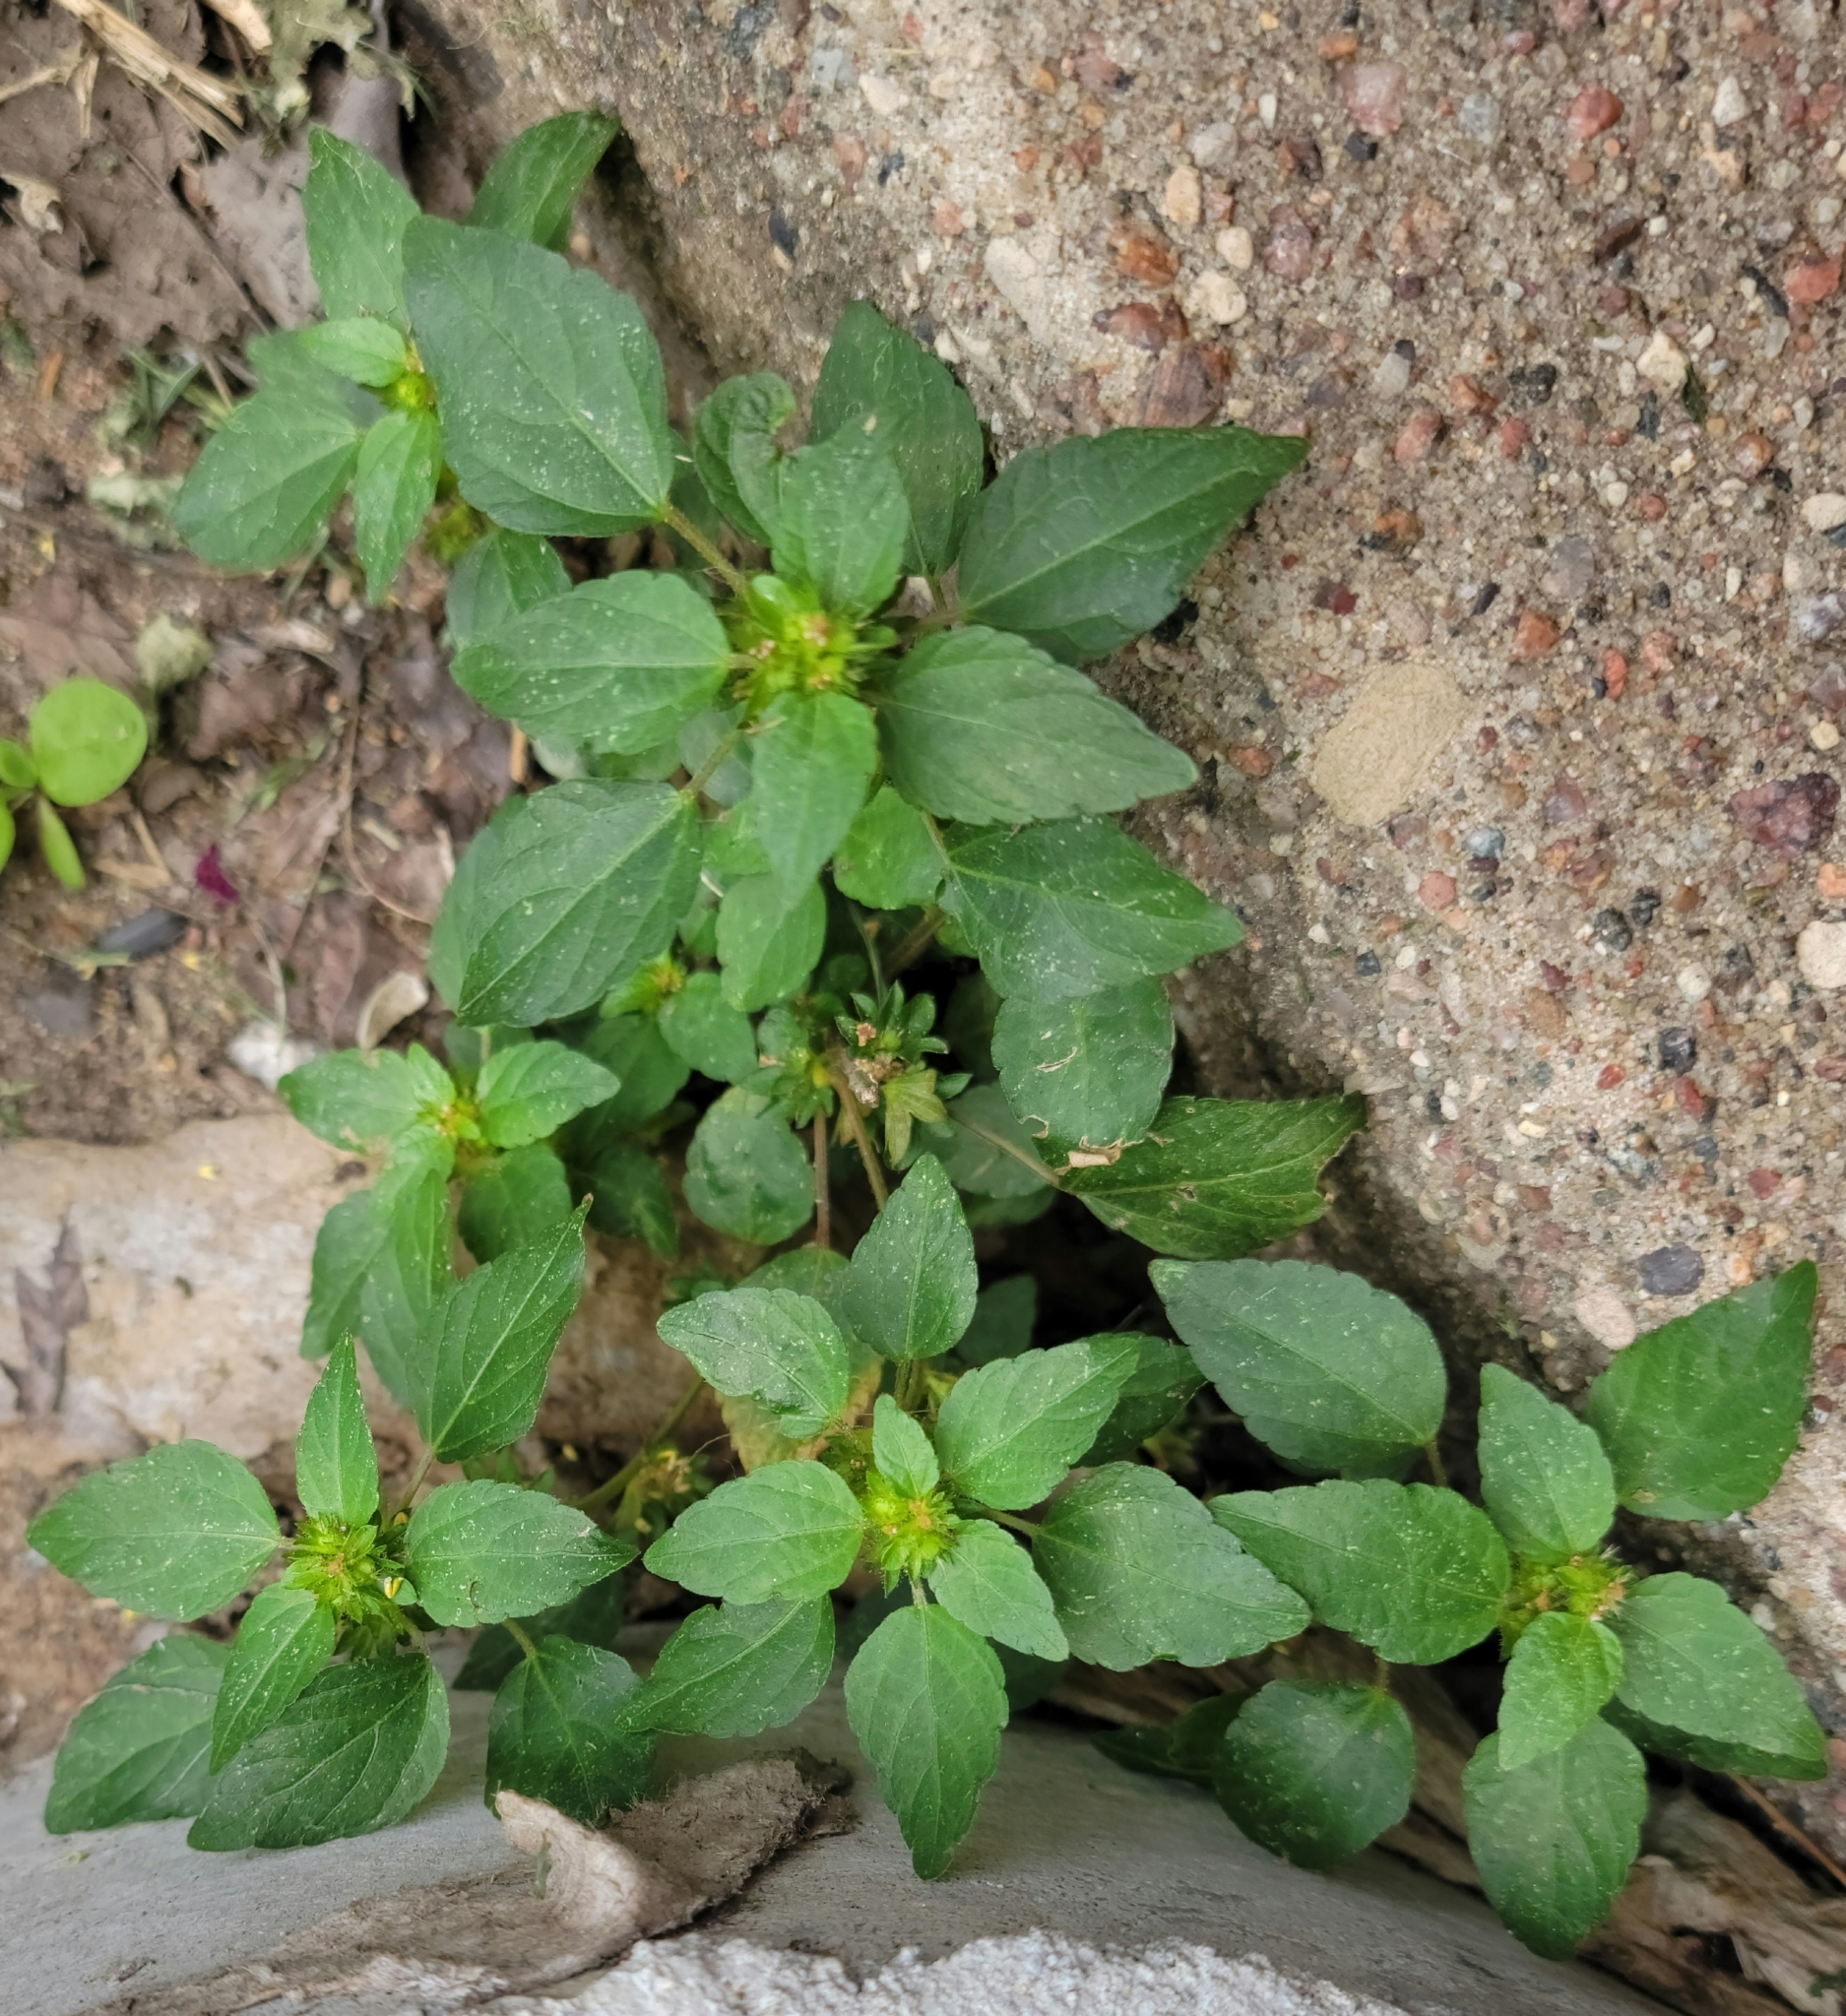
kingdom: Plantae
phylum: Tracheophyta
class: Magnoliopsida
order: Malpighiales
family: Euphorbiaceae
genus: Acalypha
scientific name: Acalypha rhomboidea
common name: Rhombic copperleaf
